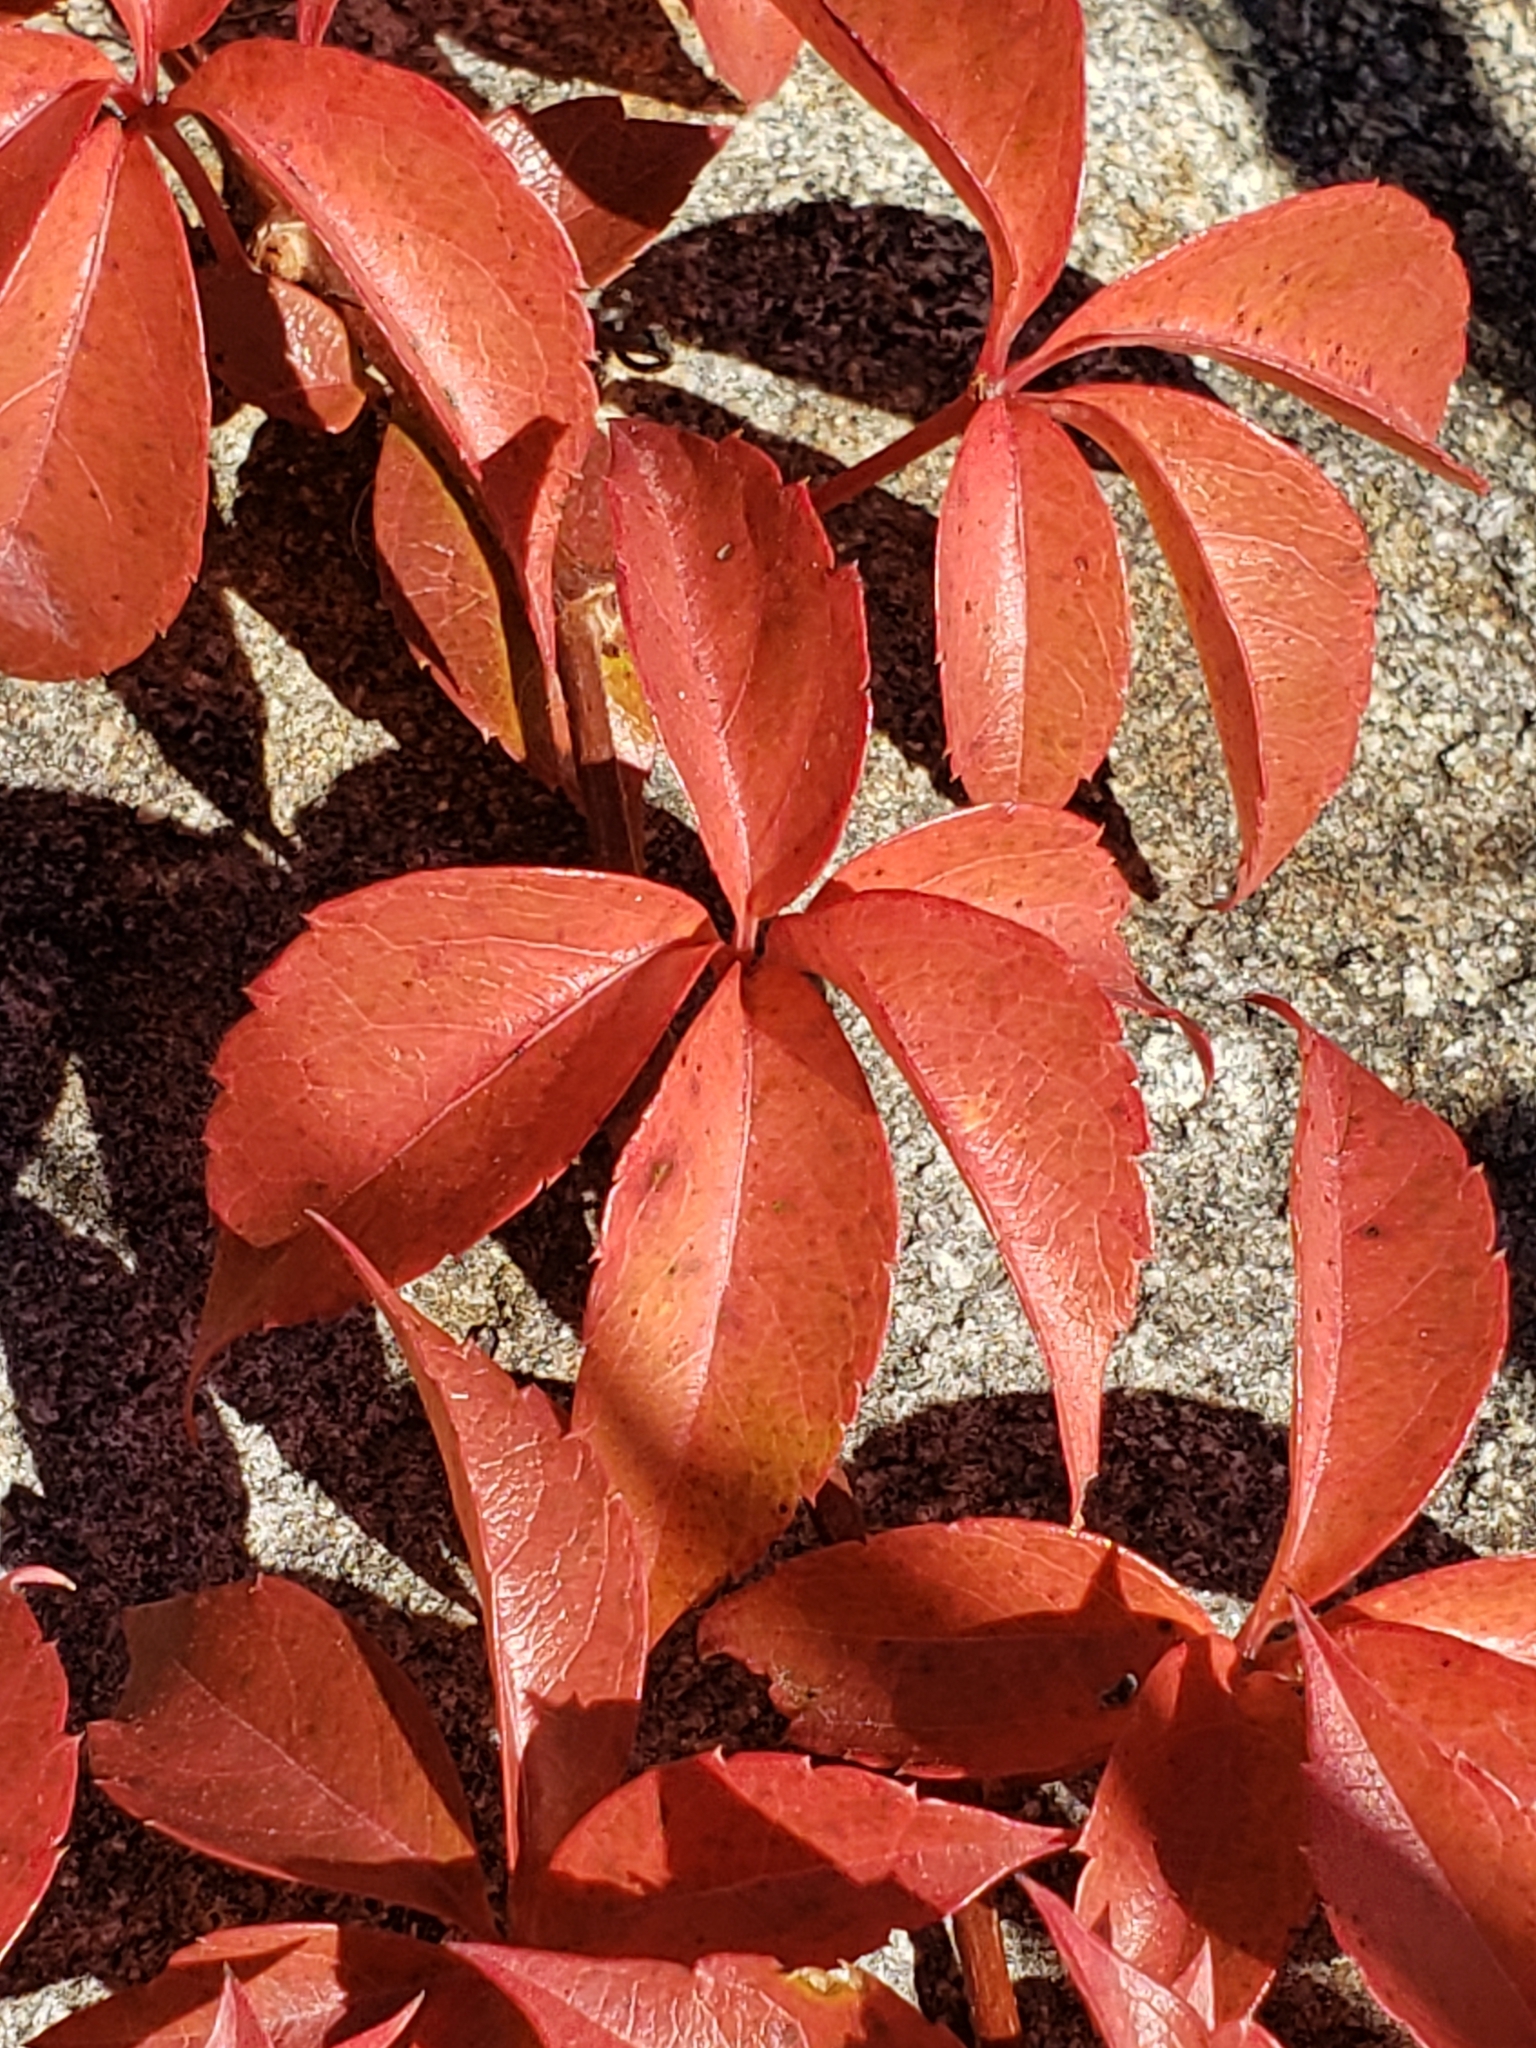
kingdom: Plantae
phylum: Tracheophyta
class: Magnoliopsida
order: Vitales
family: Vitaceae
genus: Parthenocissus
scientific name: Parthenocissus quinquefolia
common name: Virginia-creeper
